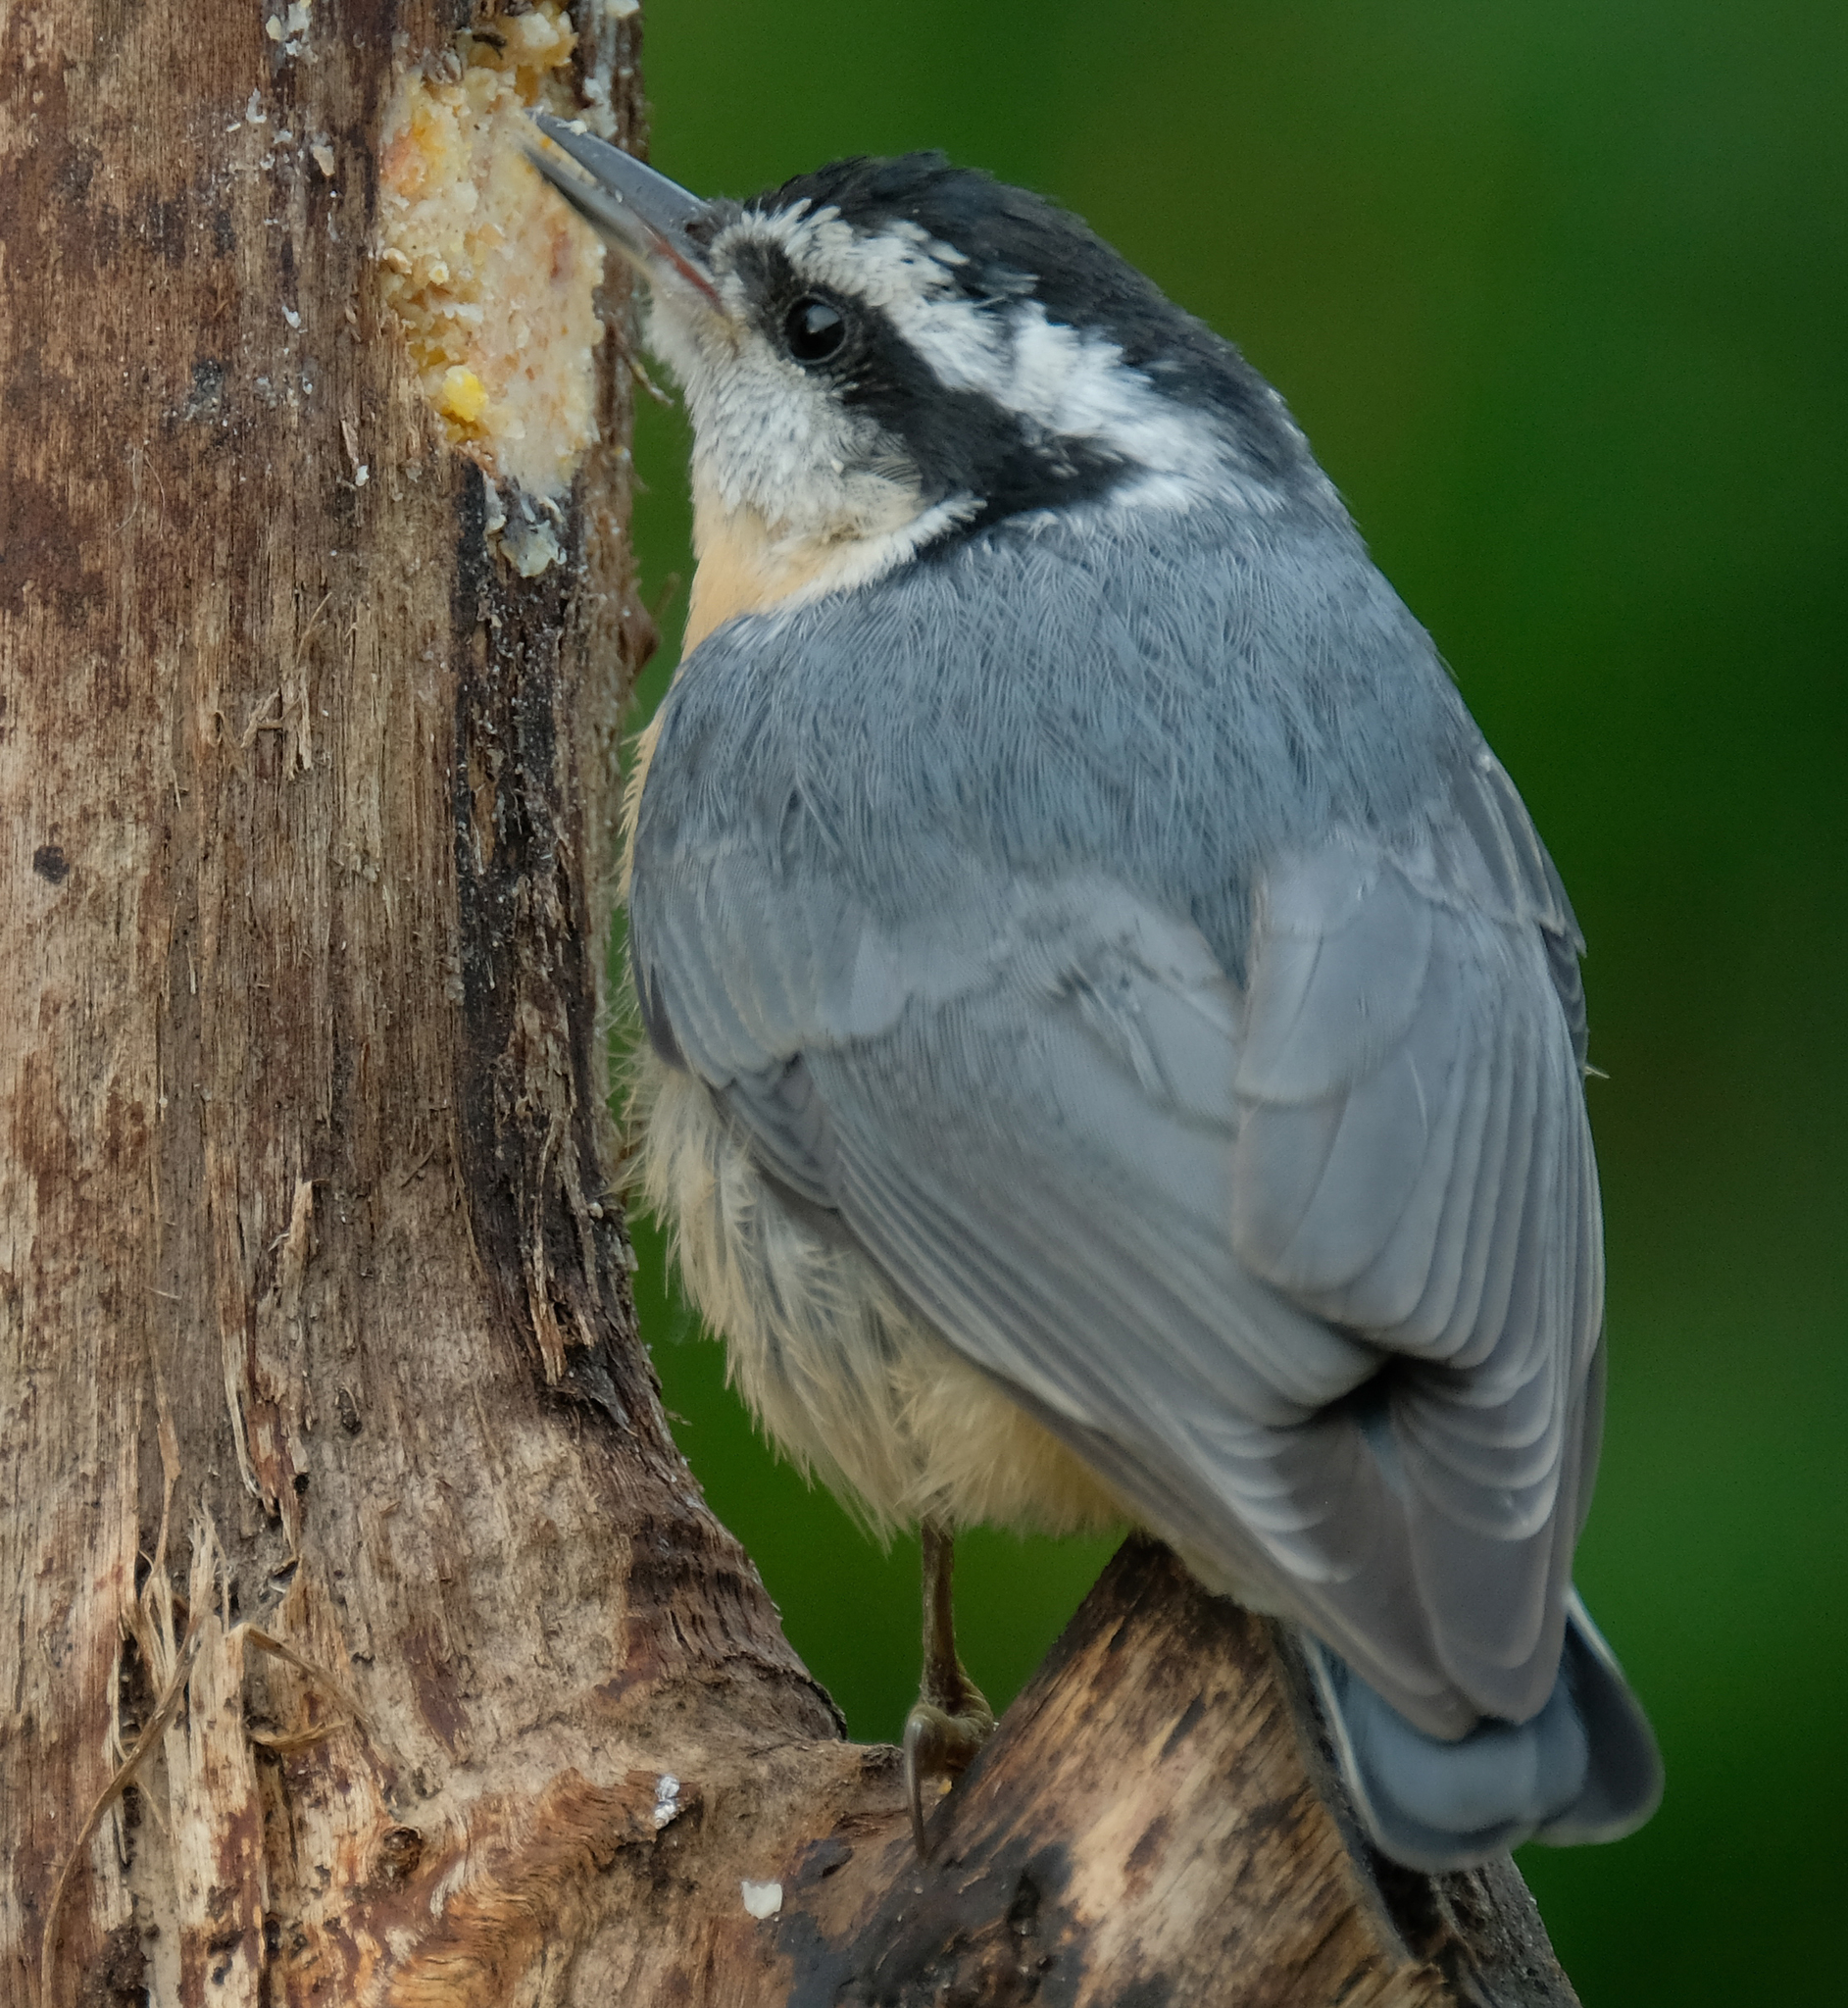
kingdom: Animalia
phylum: Chordata
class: Aves
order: Passeriformes
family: Sittidae
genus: Sitta
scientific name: Sitta canadensis
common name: Red-breasted nuthatch
